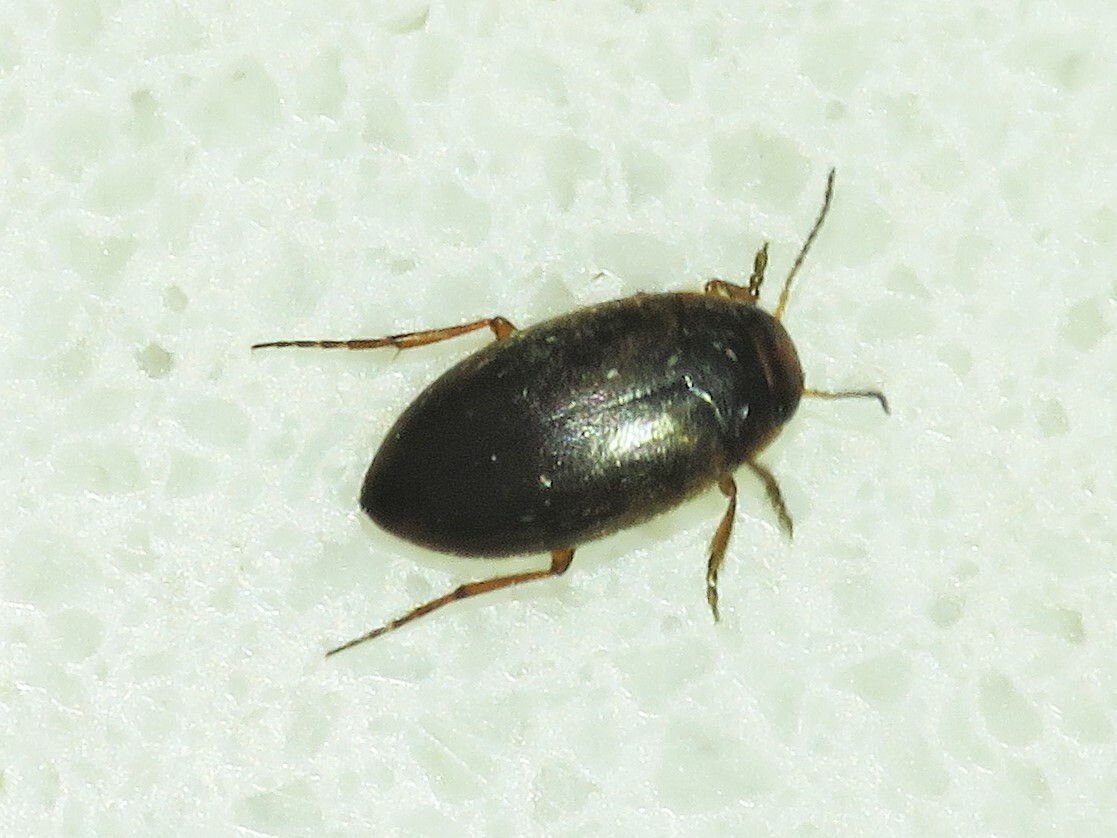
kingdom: Animalia
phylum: Arthropoda
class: Insecta
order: Coleoptera
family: Dytiscidae
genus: Hydroporus
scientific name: Hydroporus
